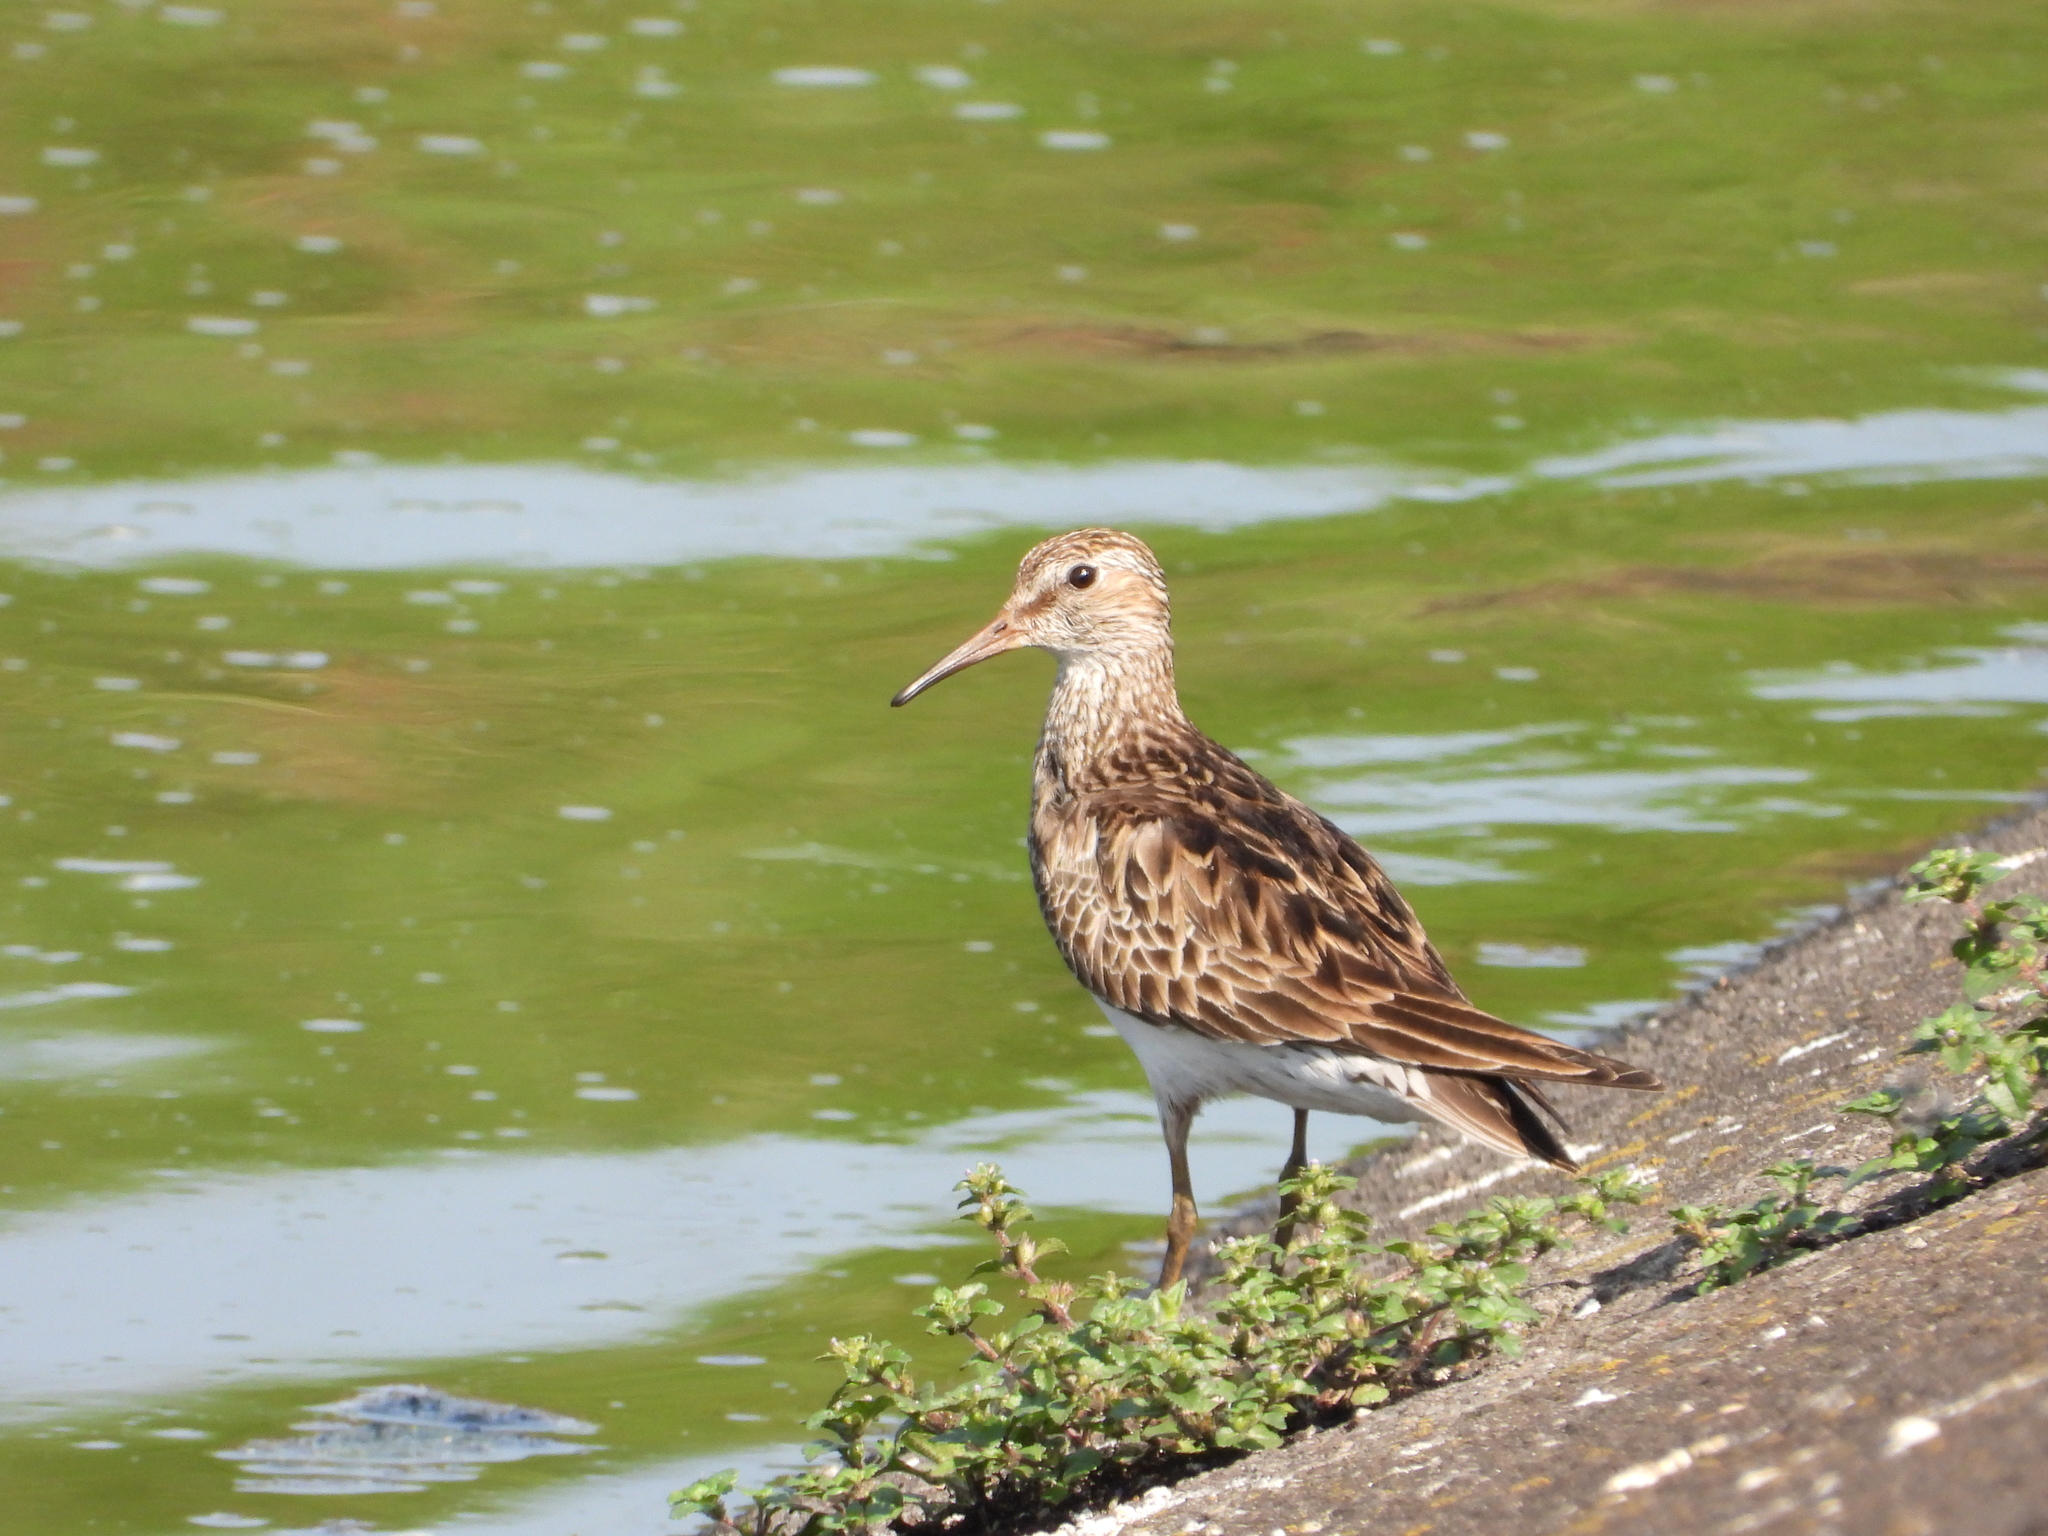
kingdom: Animalia
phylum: Chordata
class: Aves
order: Charadriiformes
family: Scolopacidae
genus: Calidris
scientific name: Calidris melanotos
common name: Pectoral sandpiper
